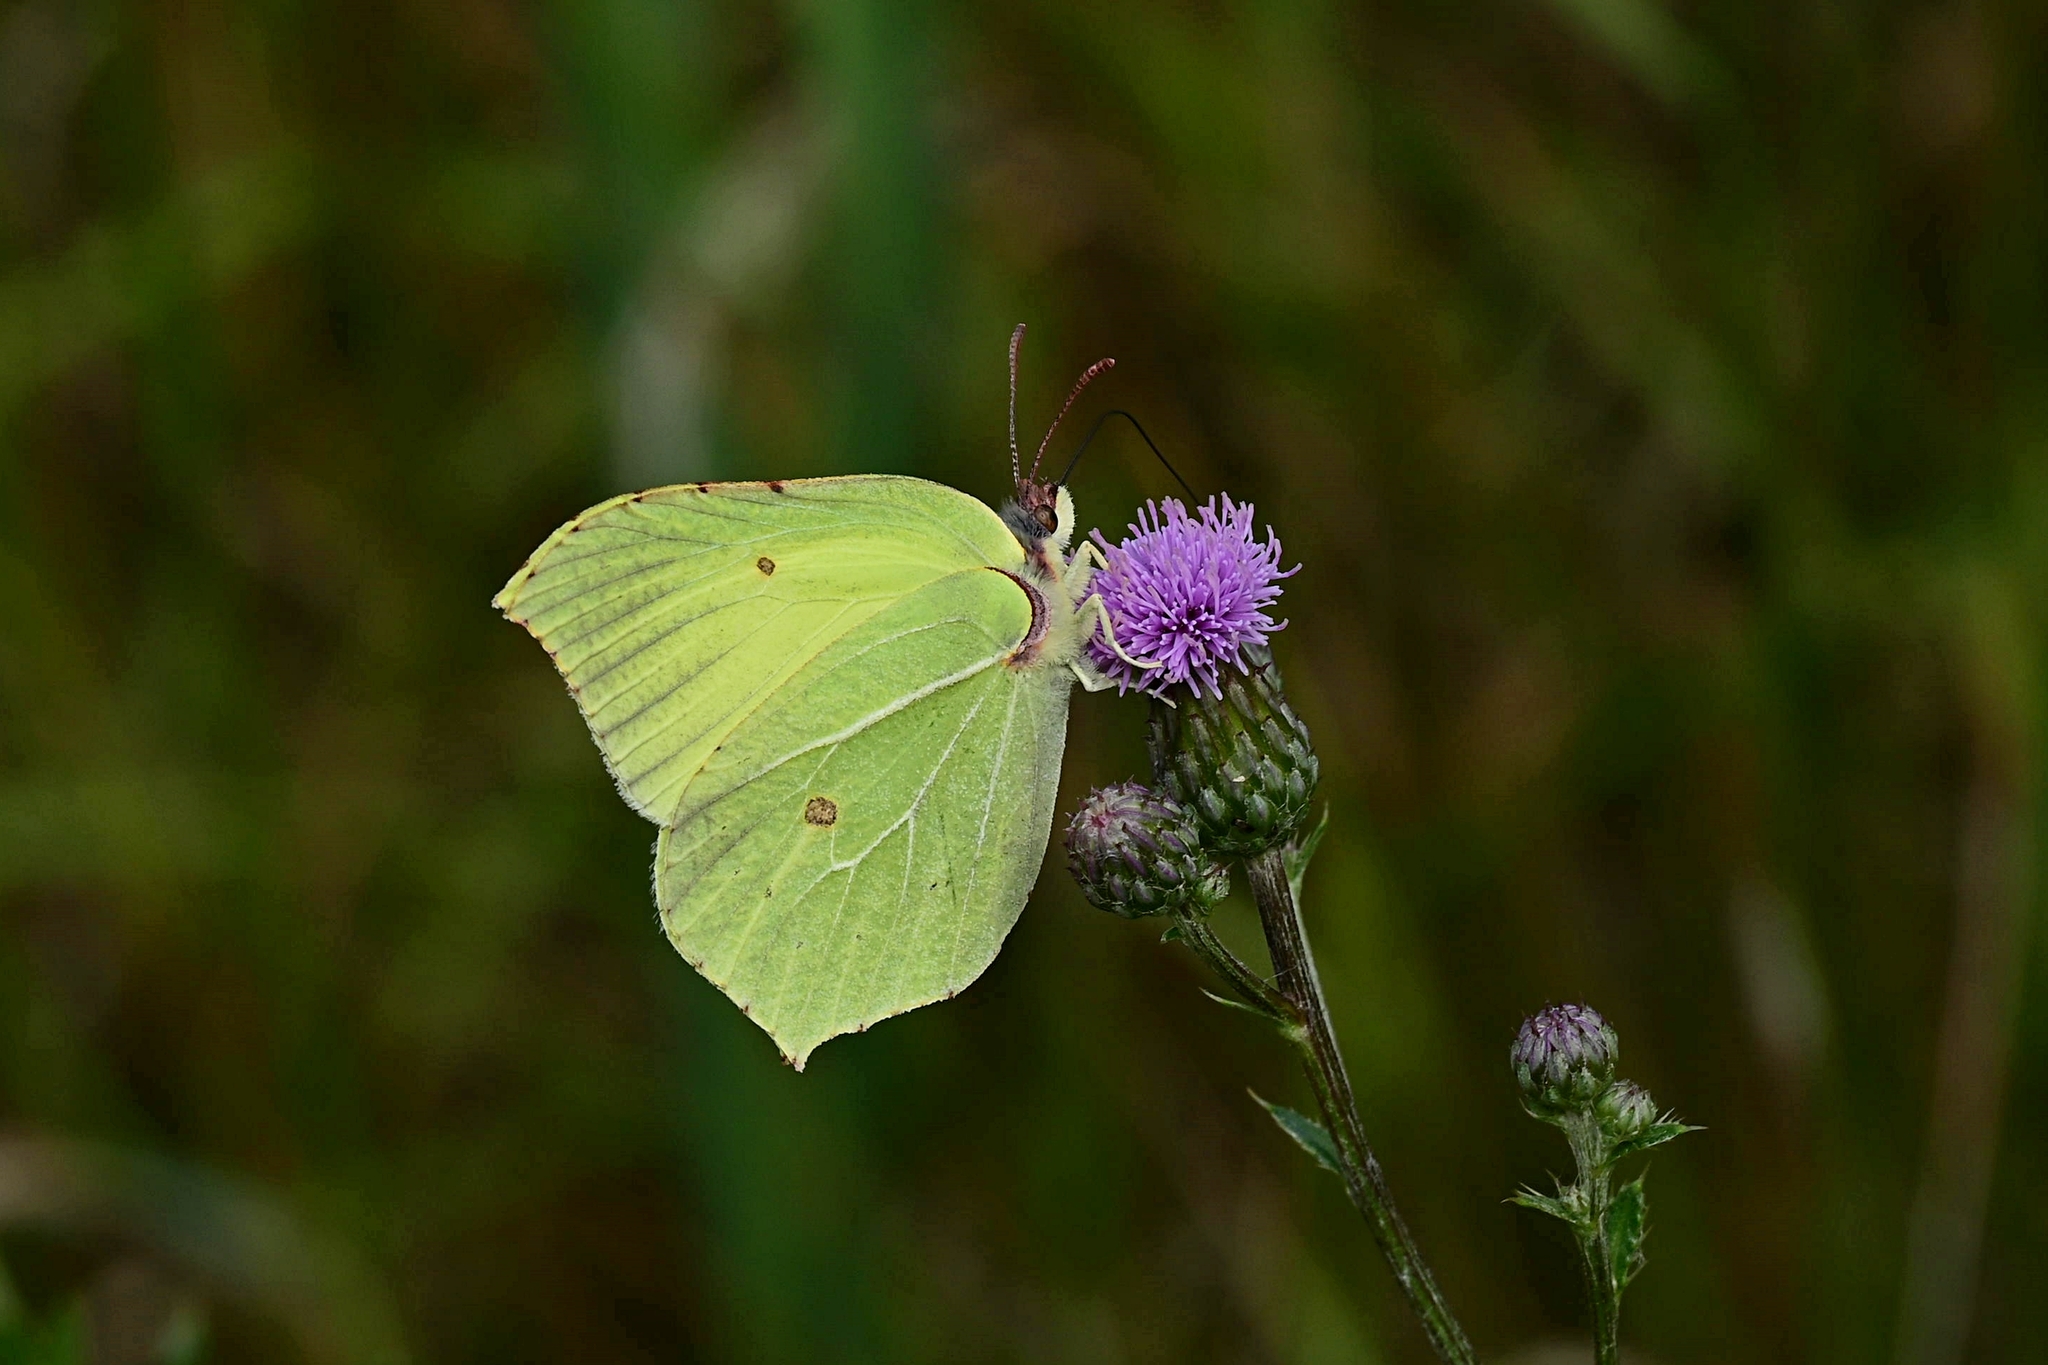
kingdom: Animalia
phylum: Arthropoda
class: Insecta
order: Lepidoptera
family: Pieridae
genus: Gonepteryx
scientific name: Gonepteryx rhamni
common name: Brimstone
